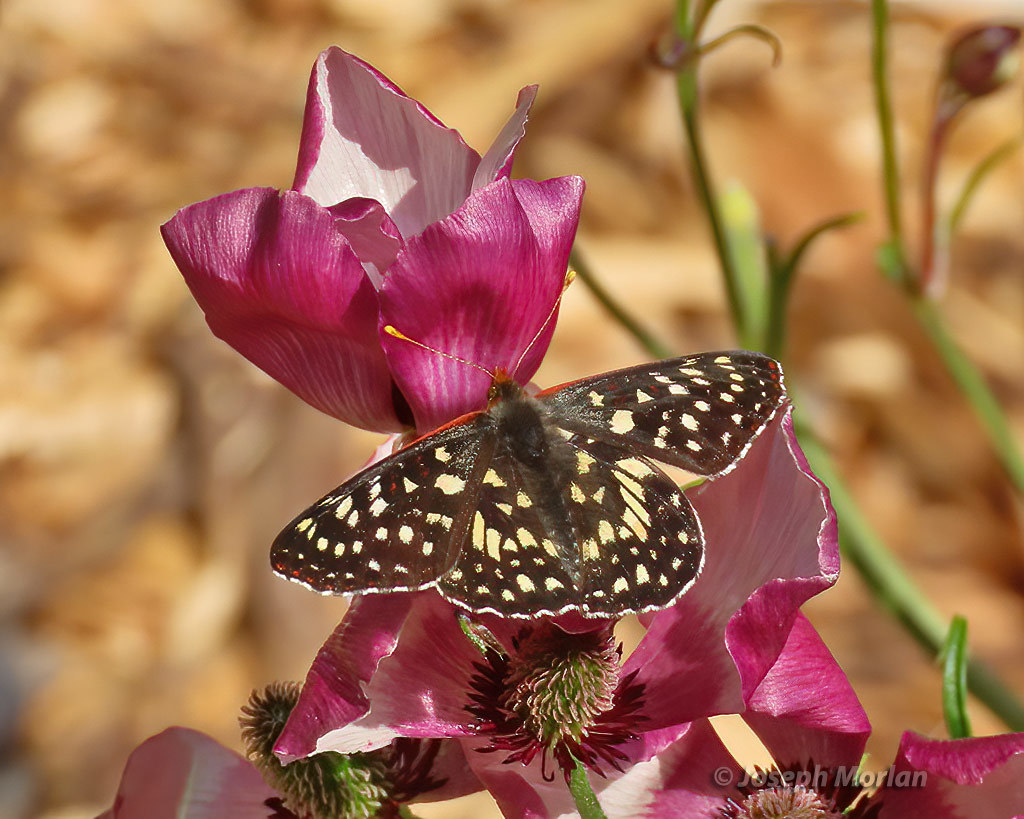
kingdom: Animalia
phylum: Arthropoda
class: Insecta
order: Lepidoptera
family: Nymphalidae
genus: Occidryas
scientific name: Occidryas chalcedona
